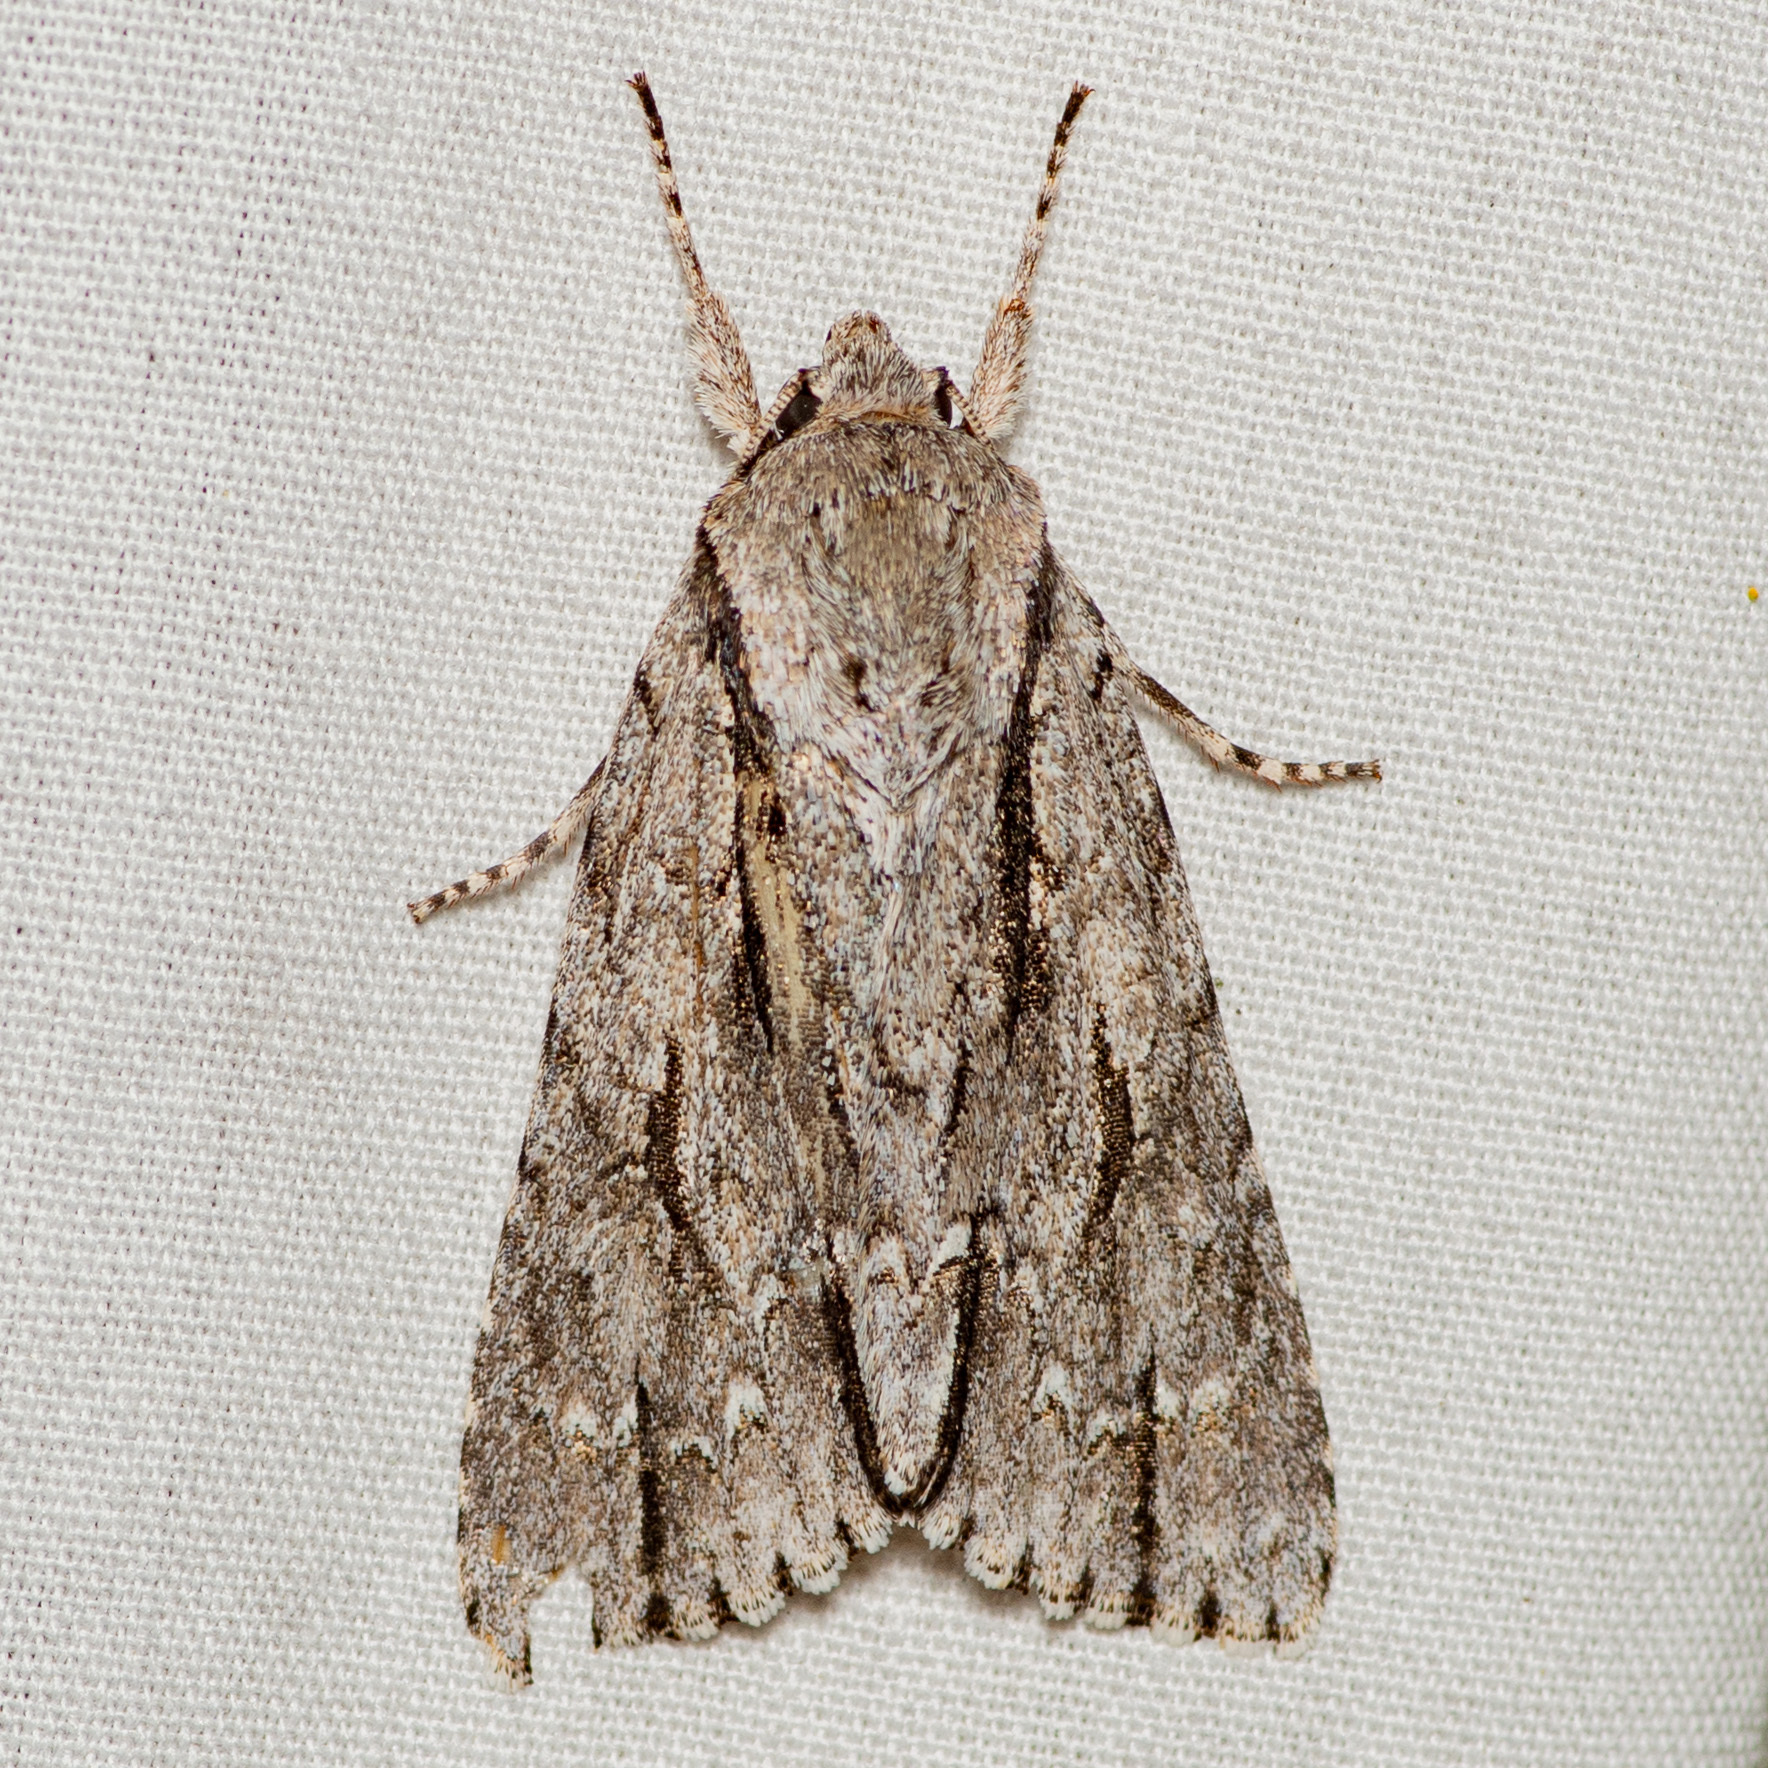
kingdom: Animalia
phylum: Arthropoda
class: Insecta
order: Lepidoptera
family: Noctuidae
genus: Acronicta
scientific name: Acronicta lobeliae
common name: Greater oak dagger
